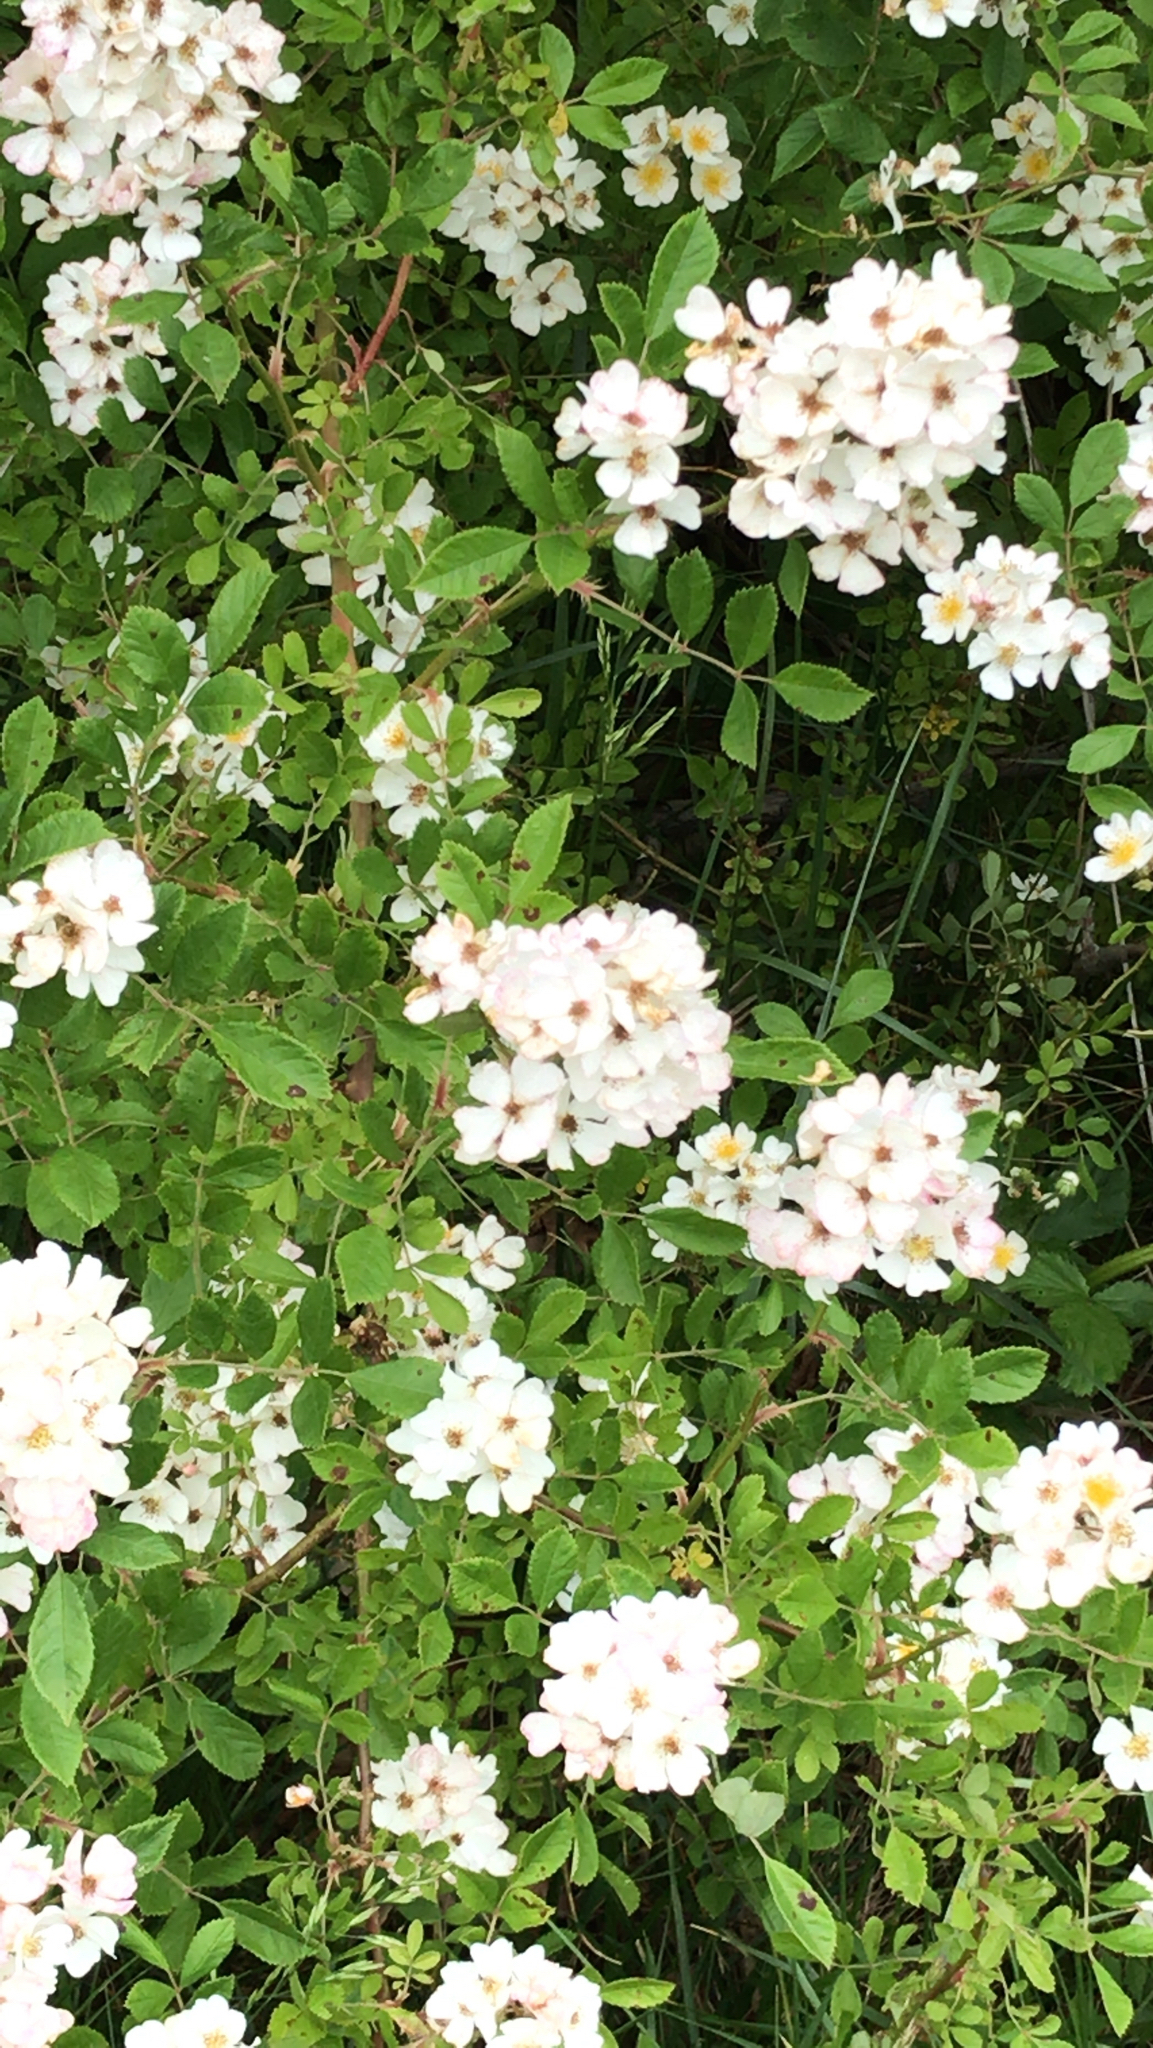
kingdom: Plantae
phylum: Tracheophyta
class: Magnoliopsida
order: Rosales
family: Rosaceae
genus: Rosa
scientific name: Rosa multiflora
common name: Multiflora rose
